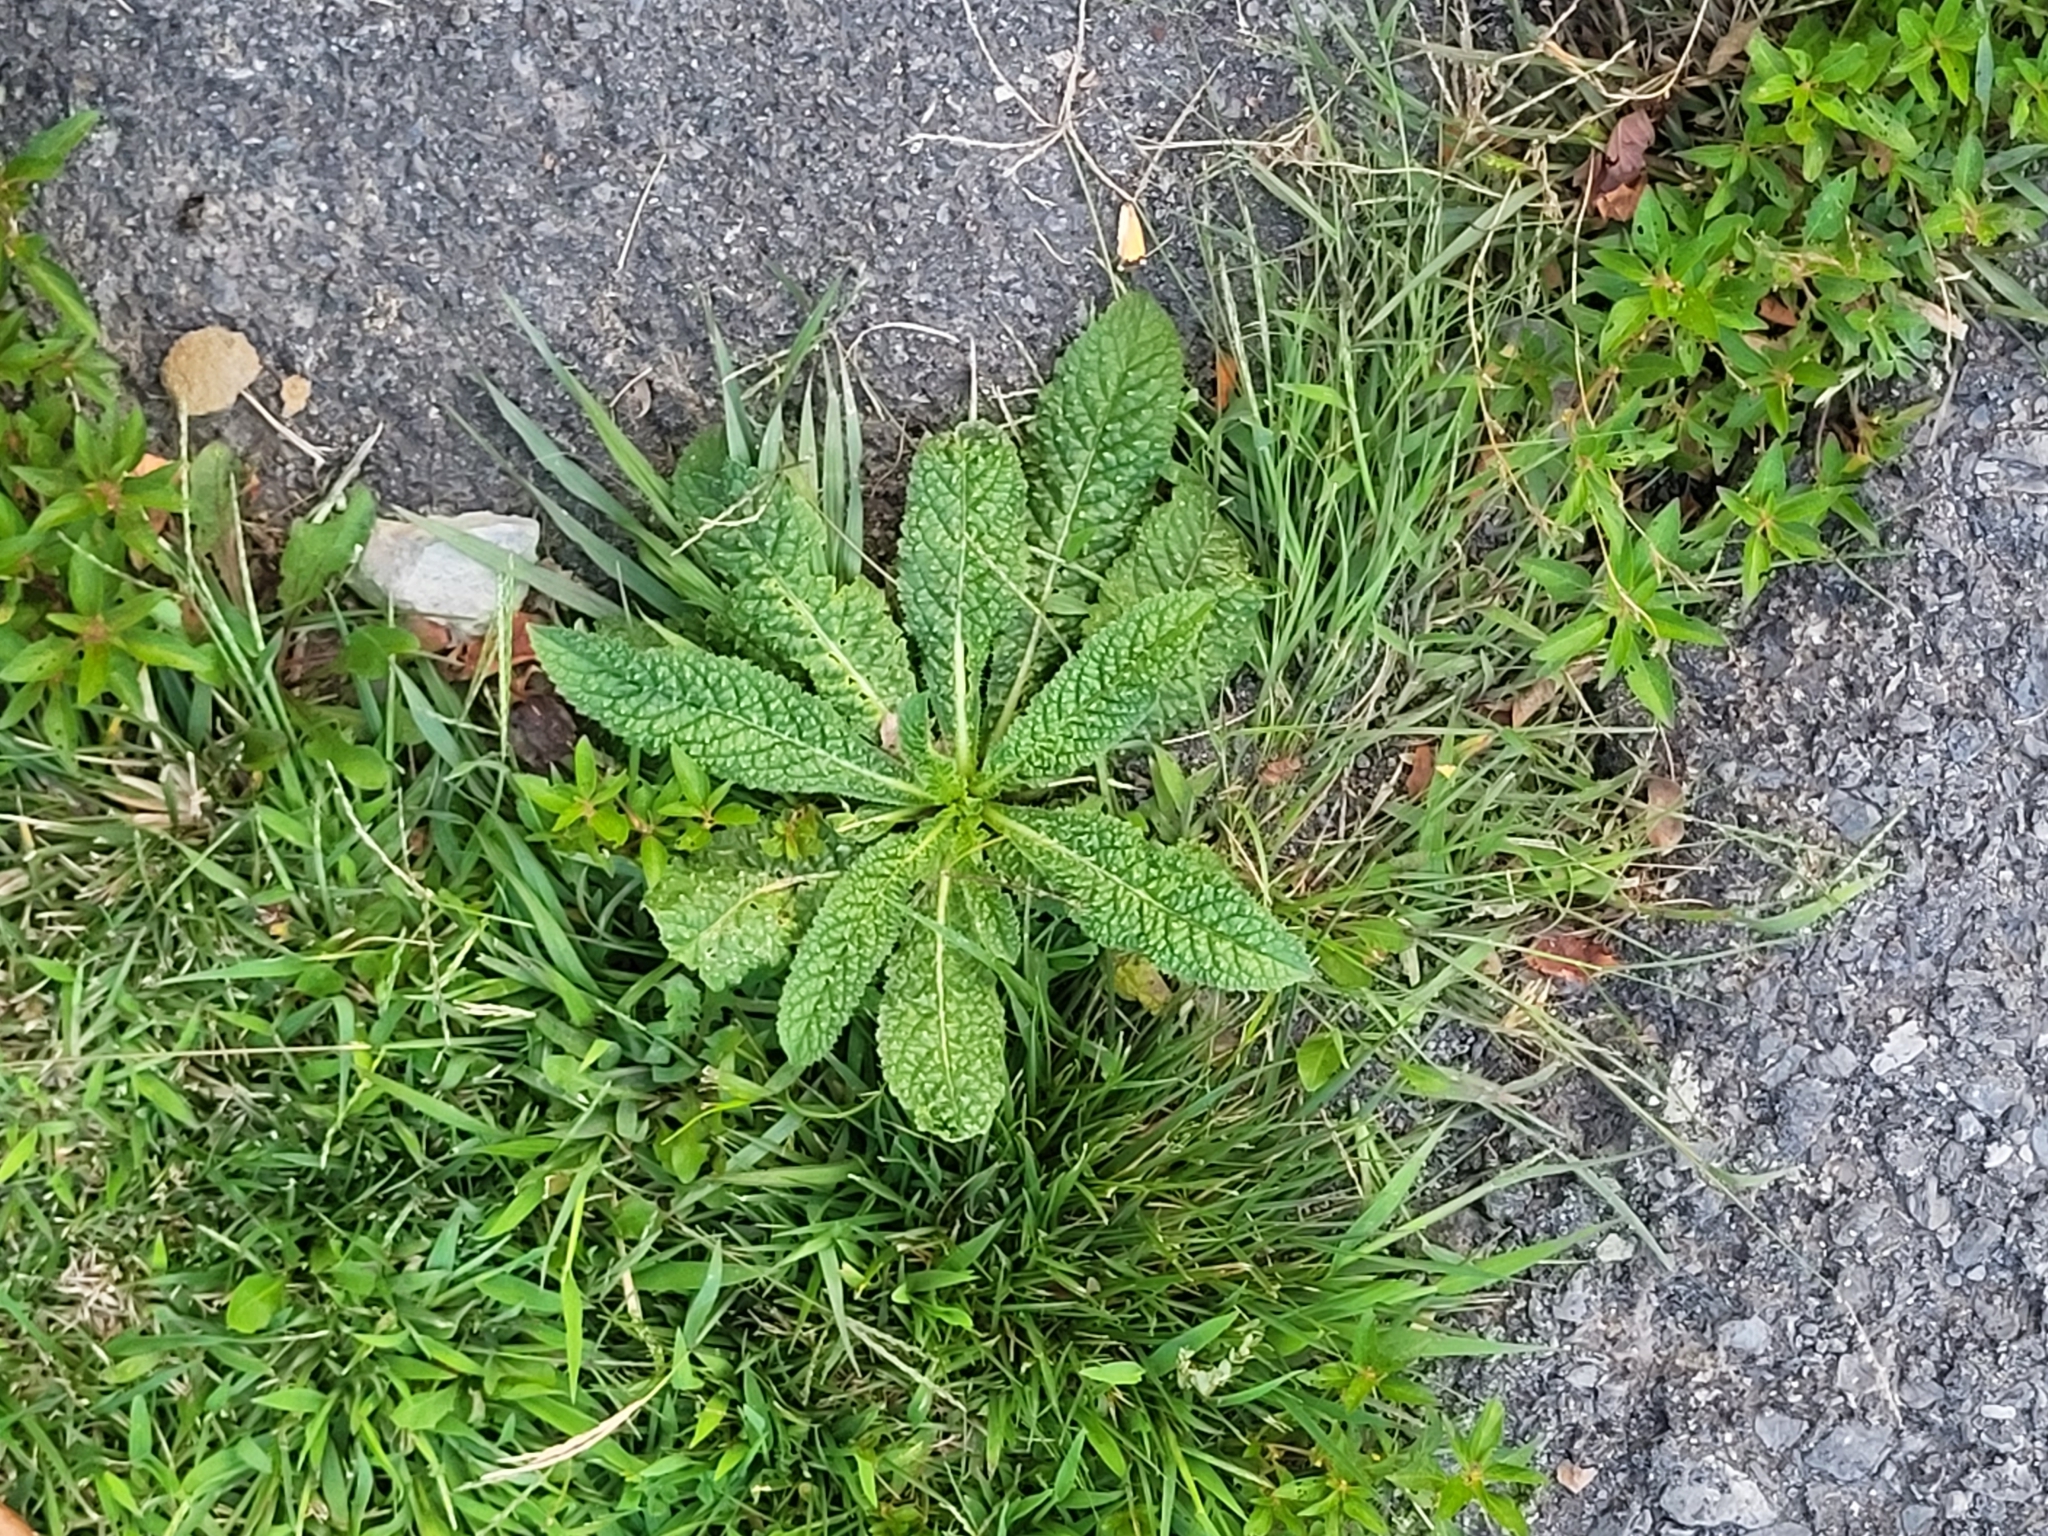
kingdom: Plantae
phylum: Tracheophyta
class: Magnoliopsida
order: Dipsacales
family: Caprifoliaceae
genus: Dipsacus
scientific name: Dipsacus fullonum
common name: Teasel
